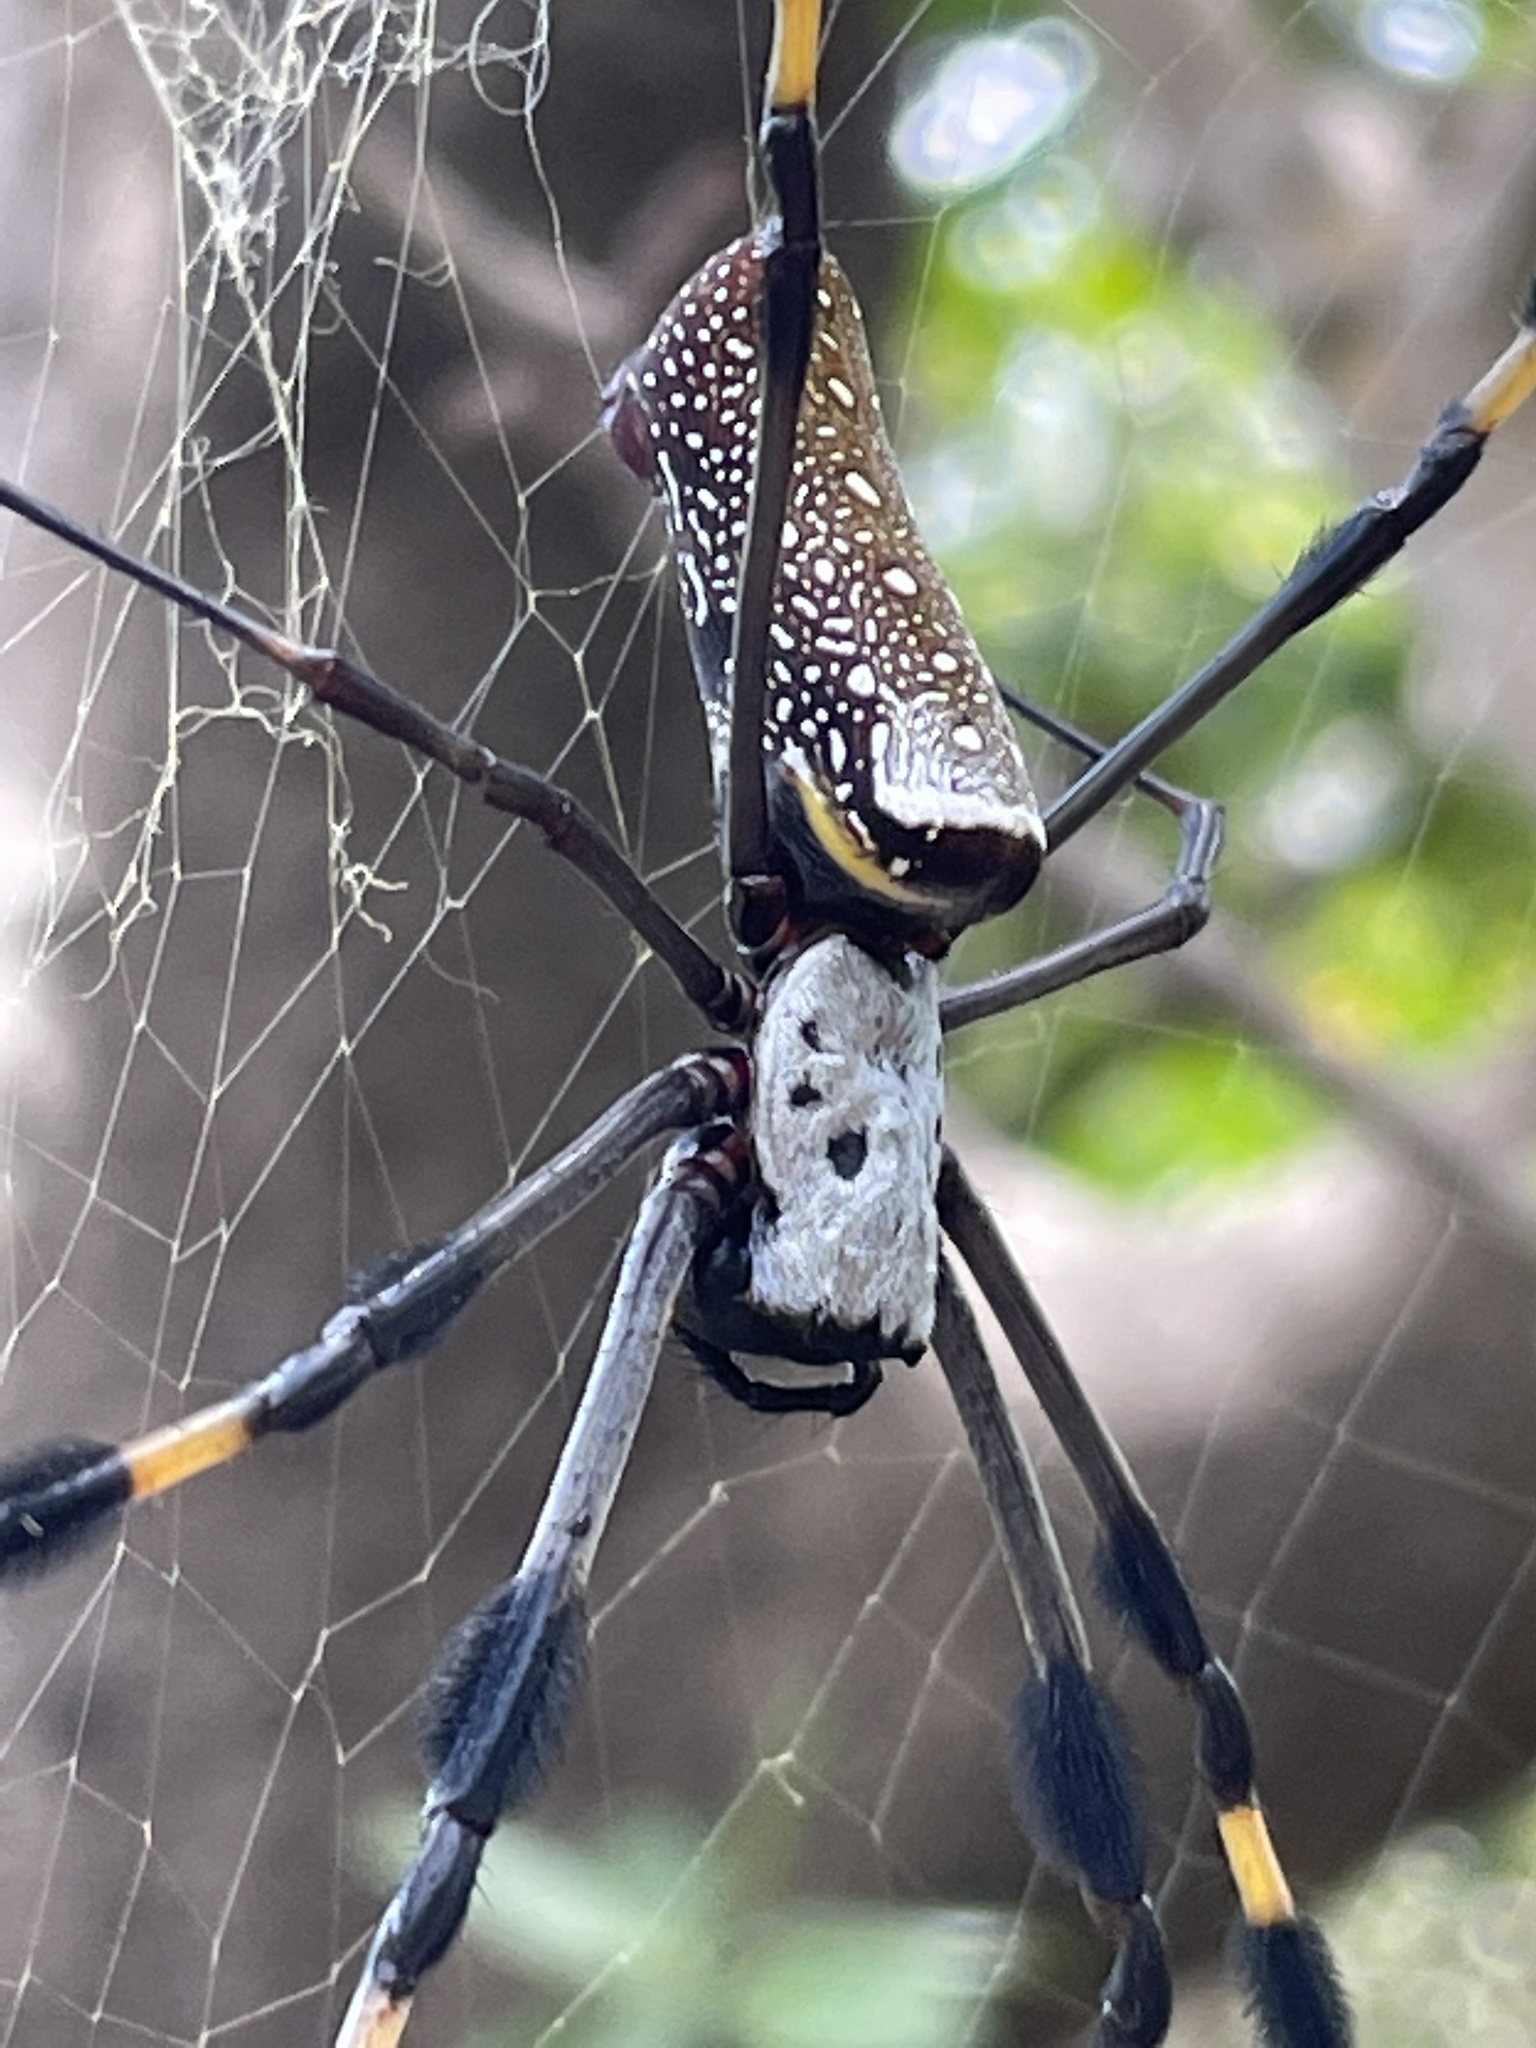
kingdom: Animalia
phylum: Arthropoda
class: Arachnida
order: Araneae
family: Araneidae
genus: Trichonephila
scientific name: Trichonephila clavipes
